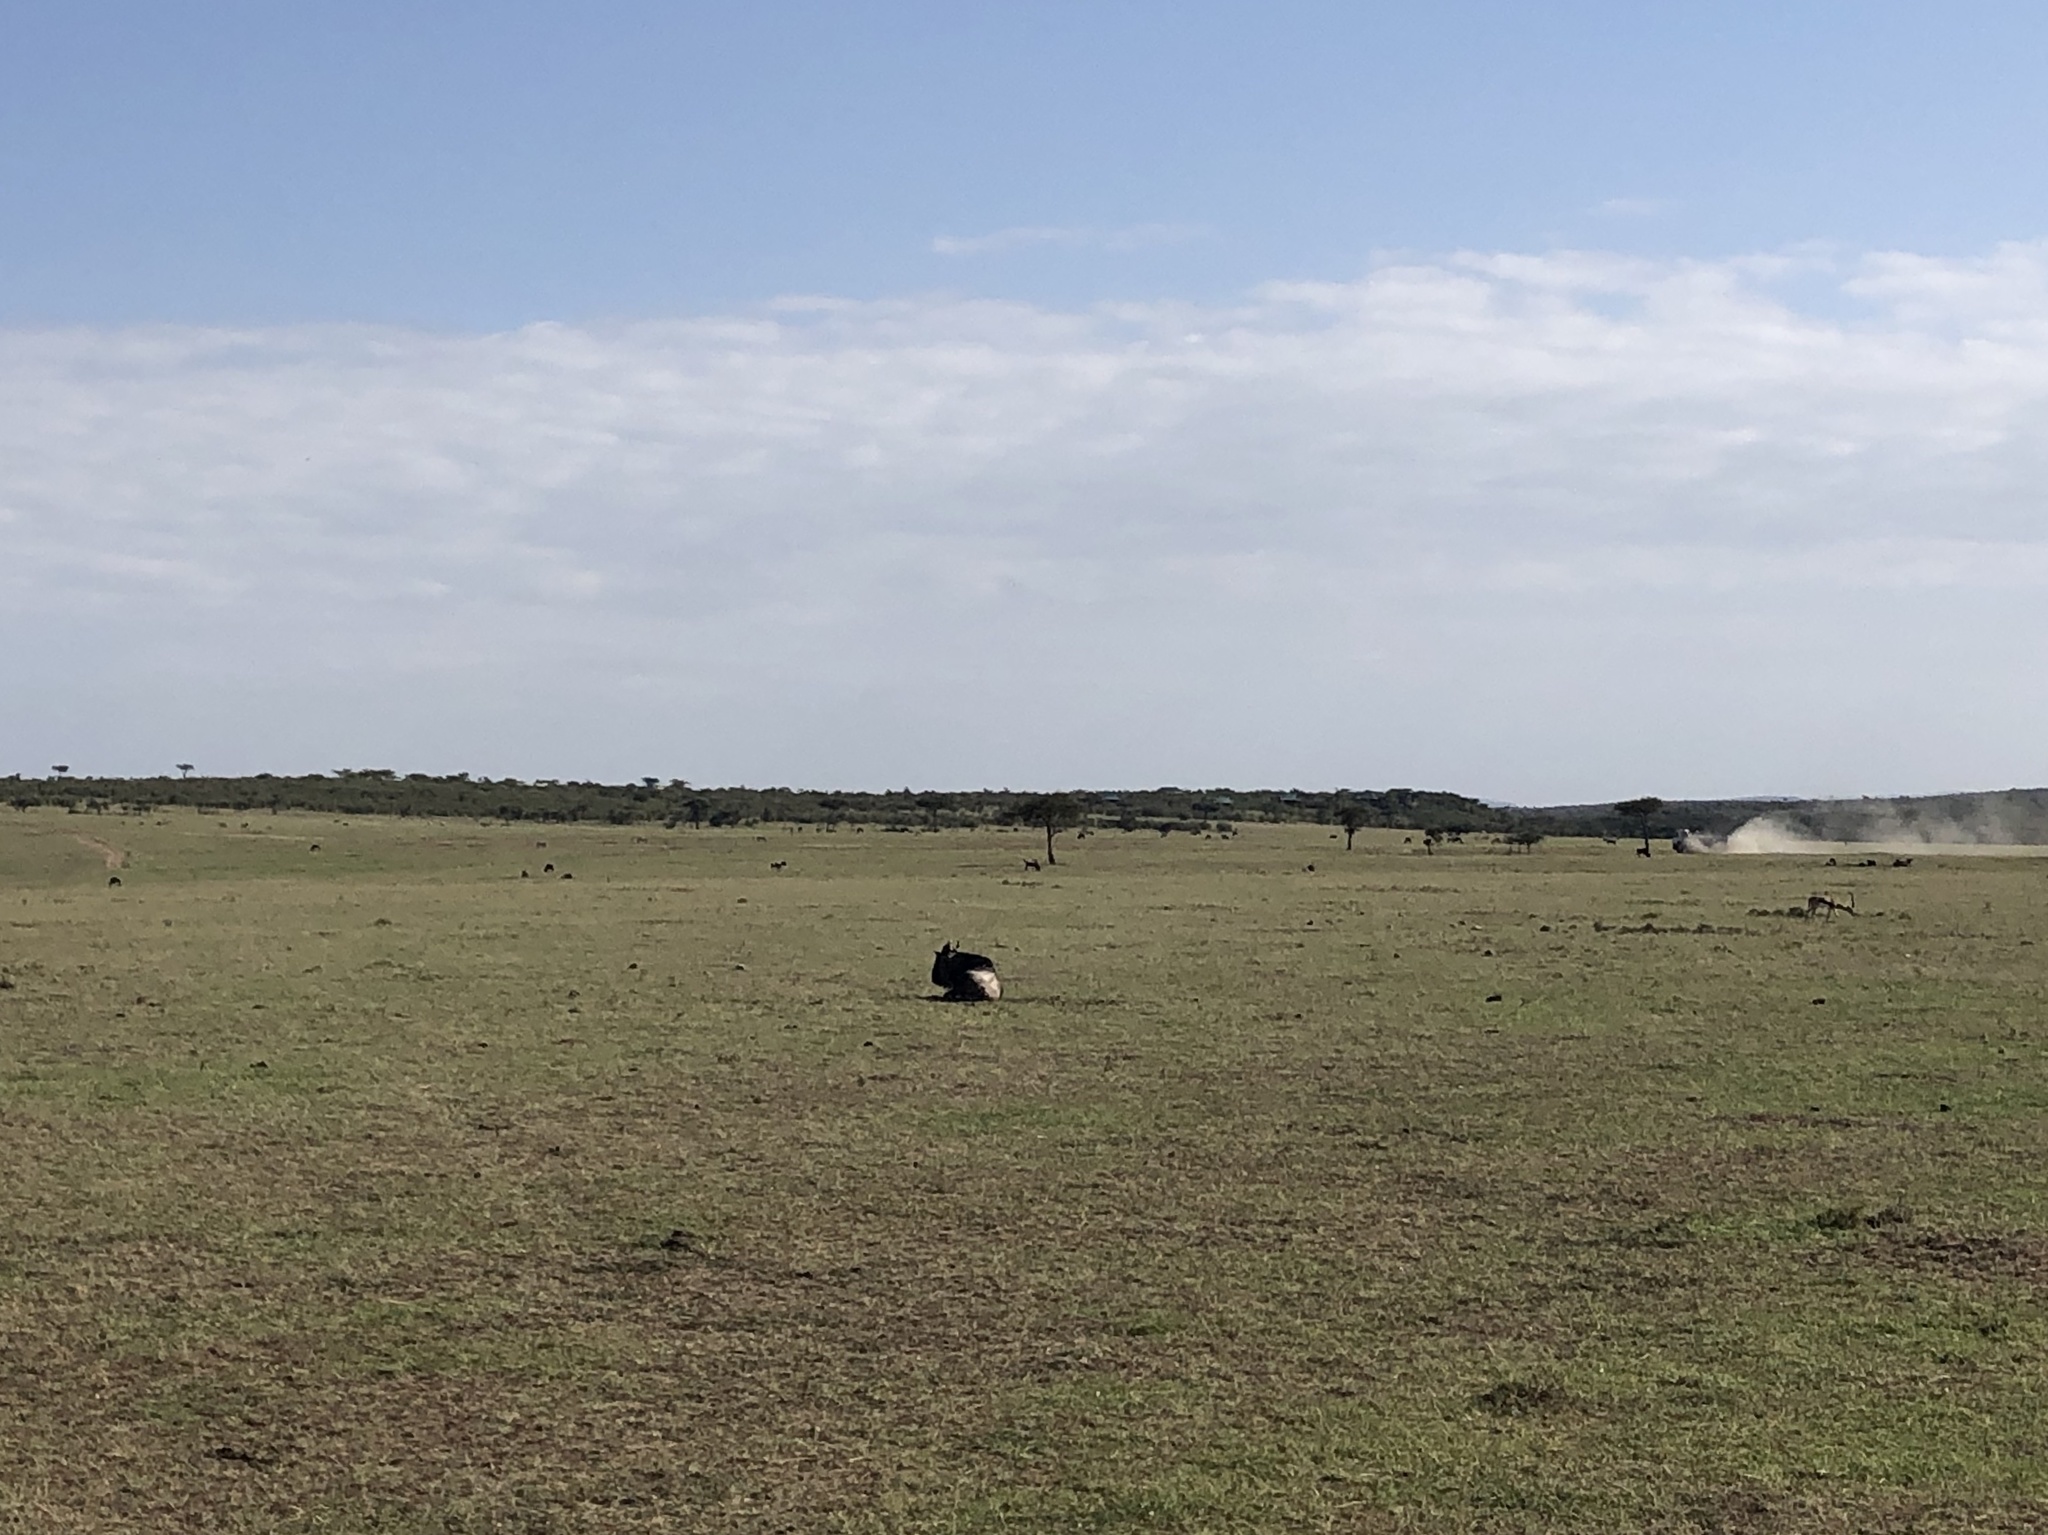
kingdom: Animalia
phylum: Chordata
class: Mammalia
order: Artiodactyla
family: Bovidae
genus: Connochaetes
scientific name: Connochaetes taurinus
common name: Blue wildebeest
